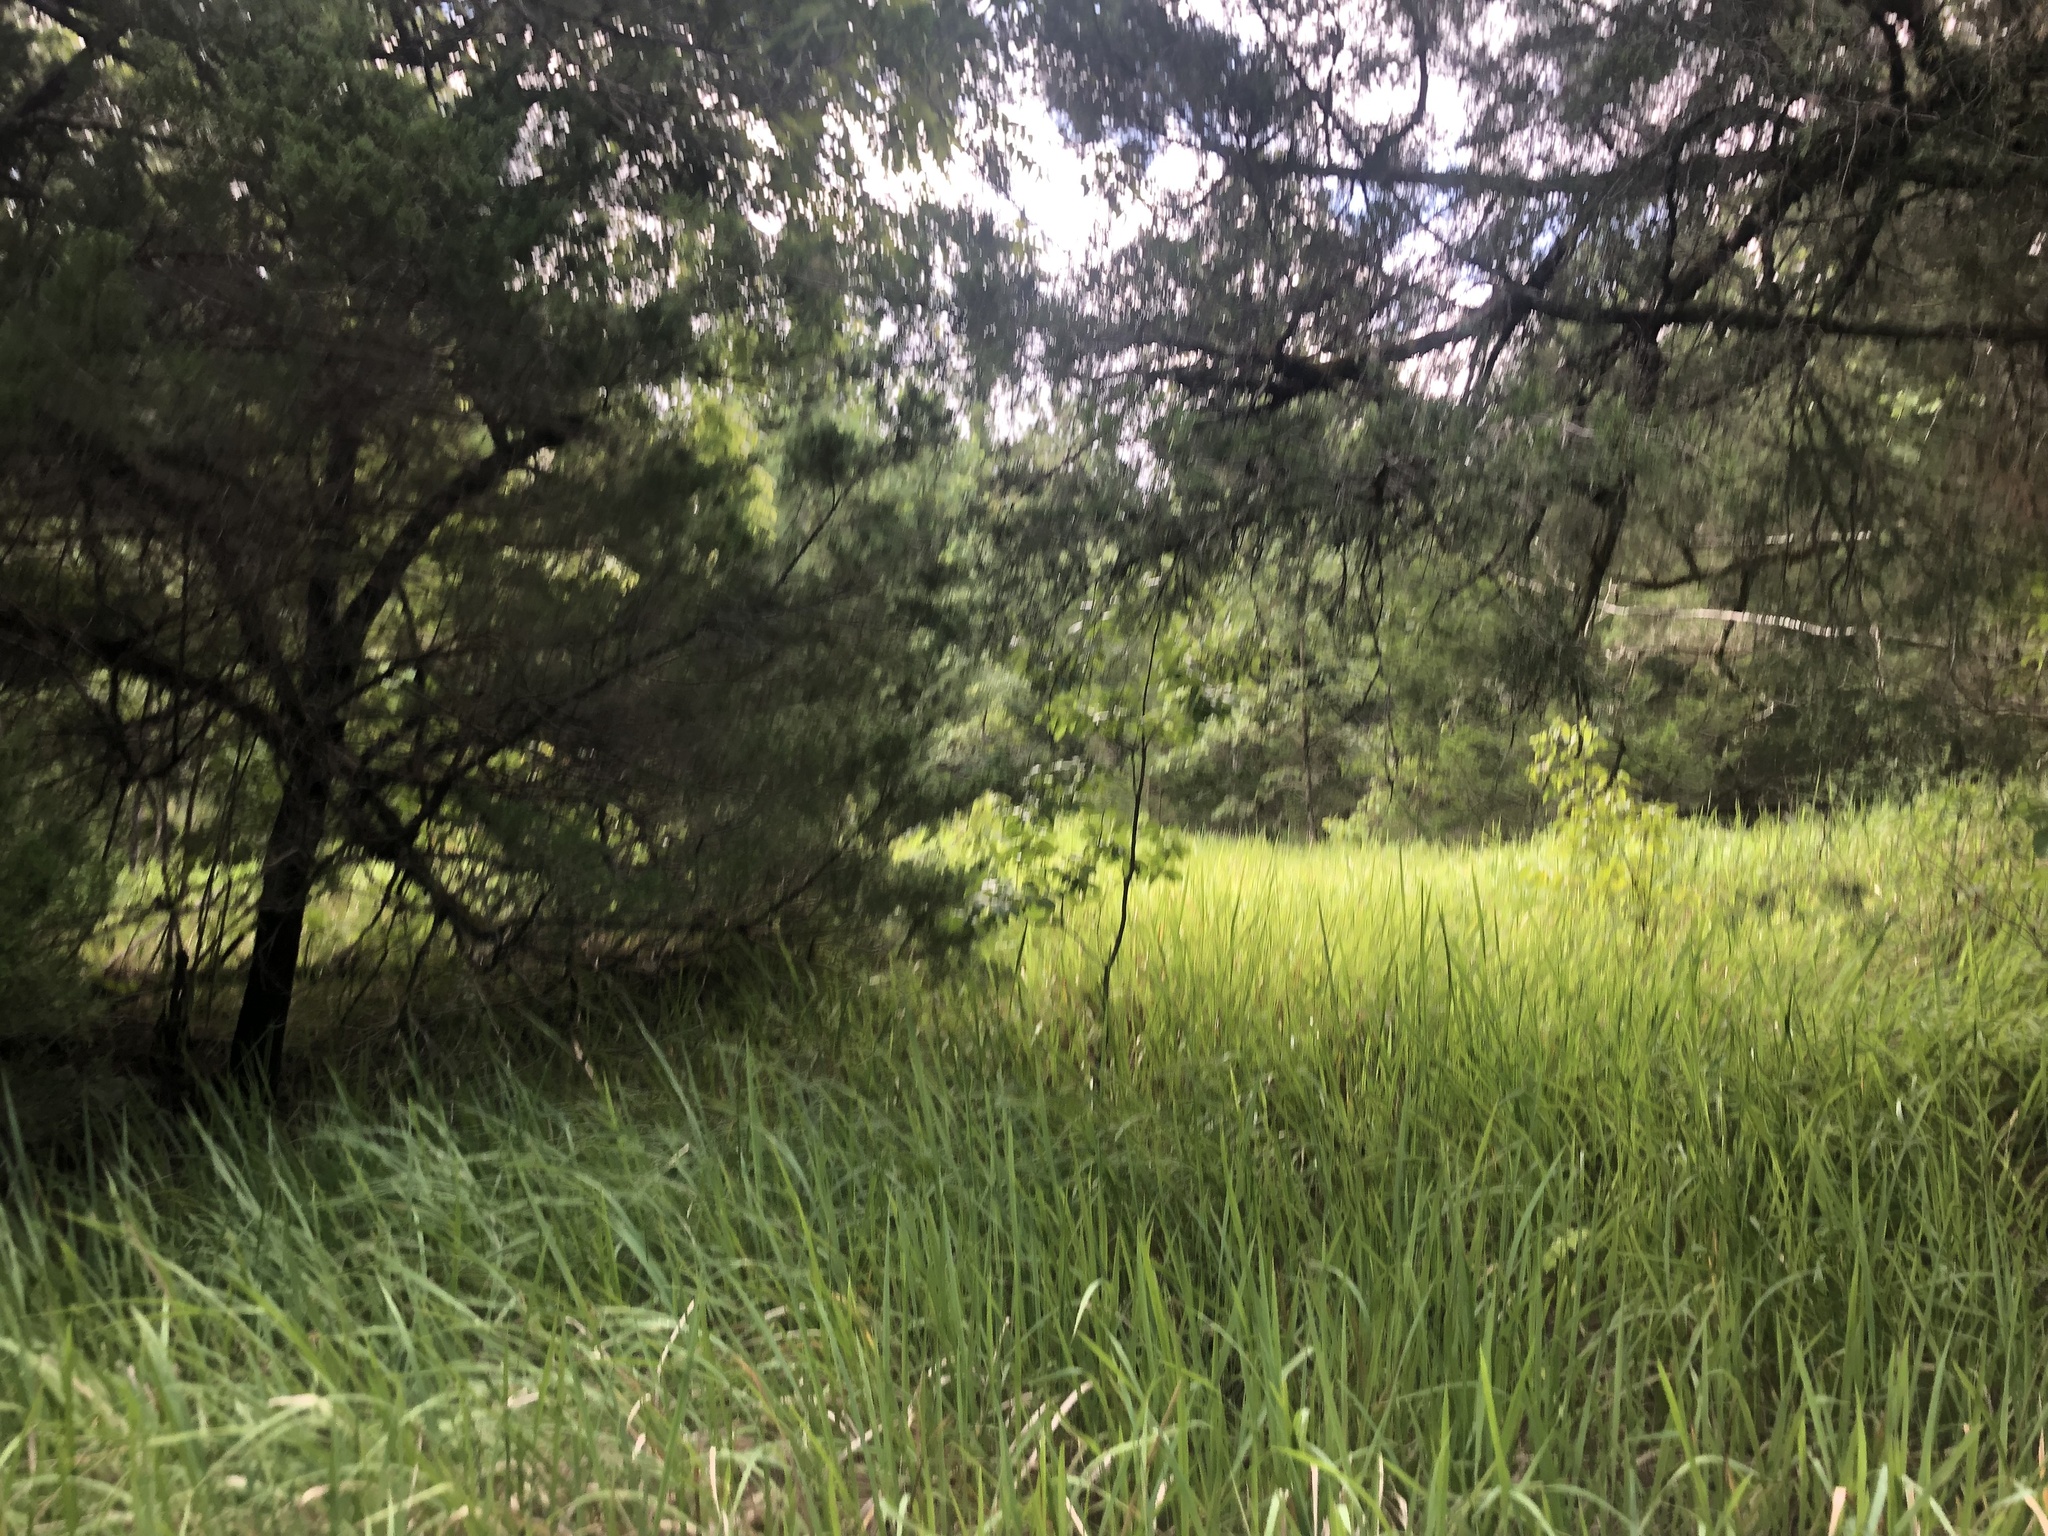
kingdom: Plantae
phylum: Tracheophyta
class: Liliopsida
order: Poales
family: Poaceae
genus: Imperata
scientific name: Imperata cylindrica
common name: Cogongrass
